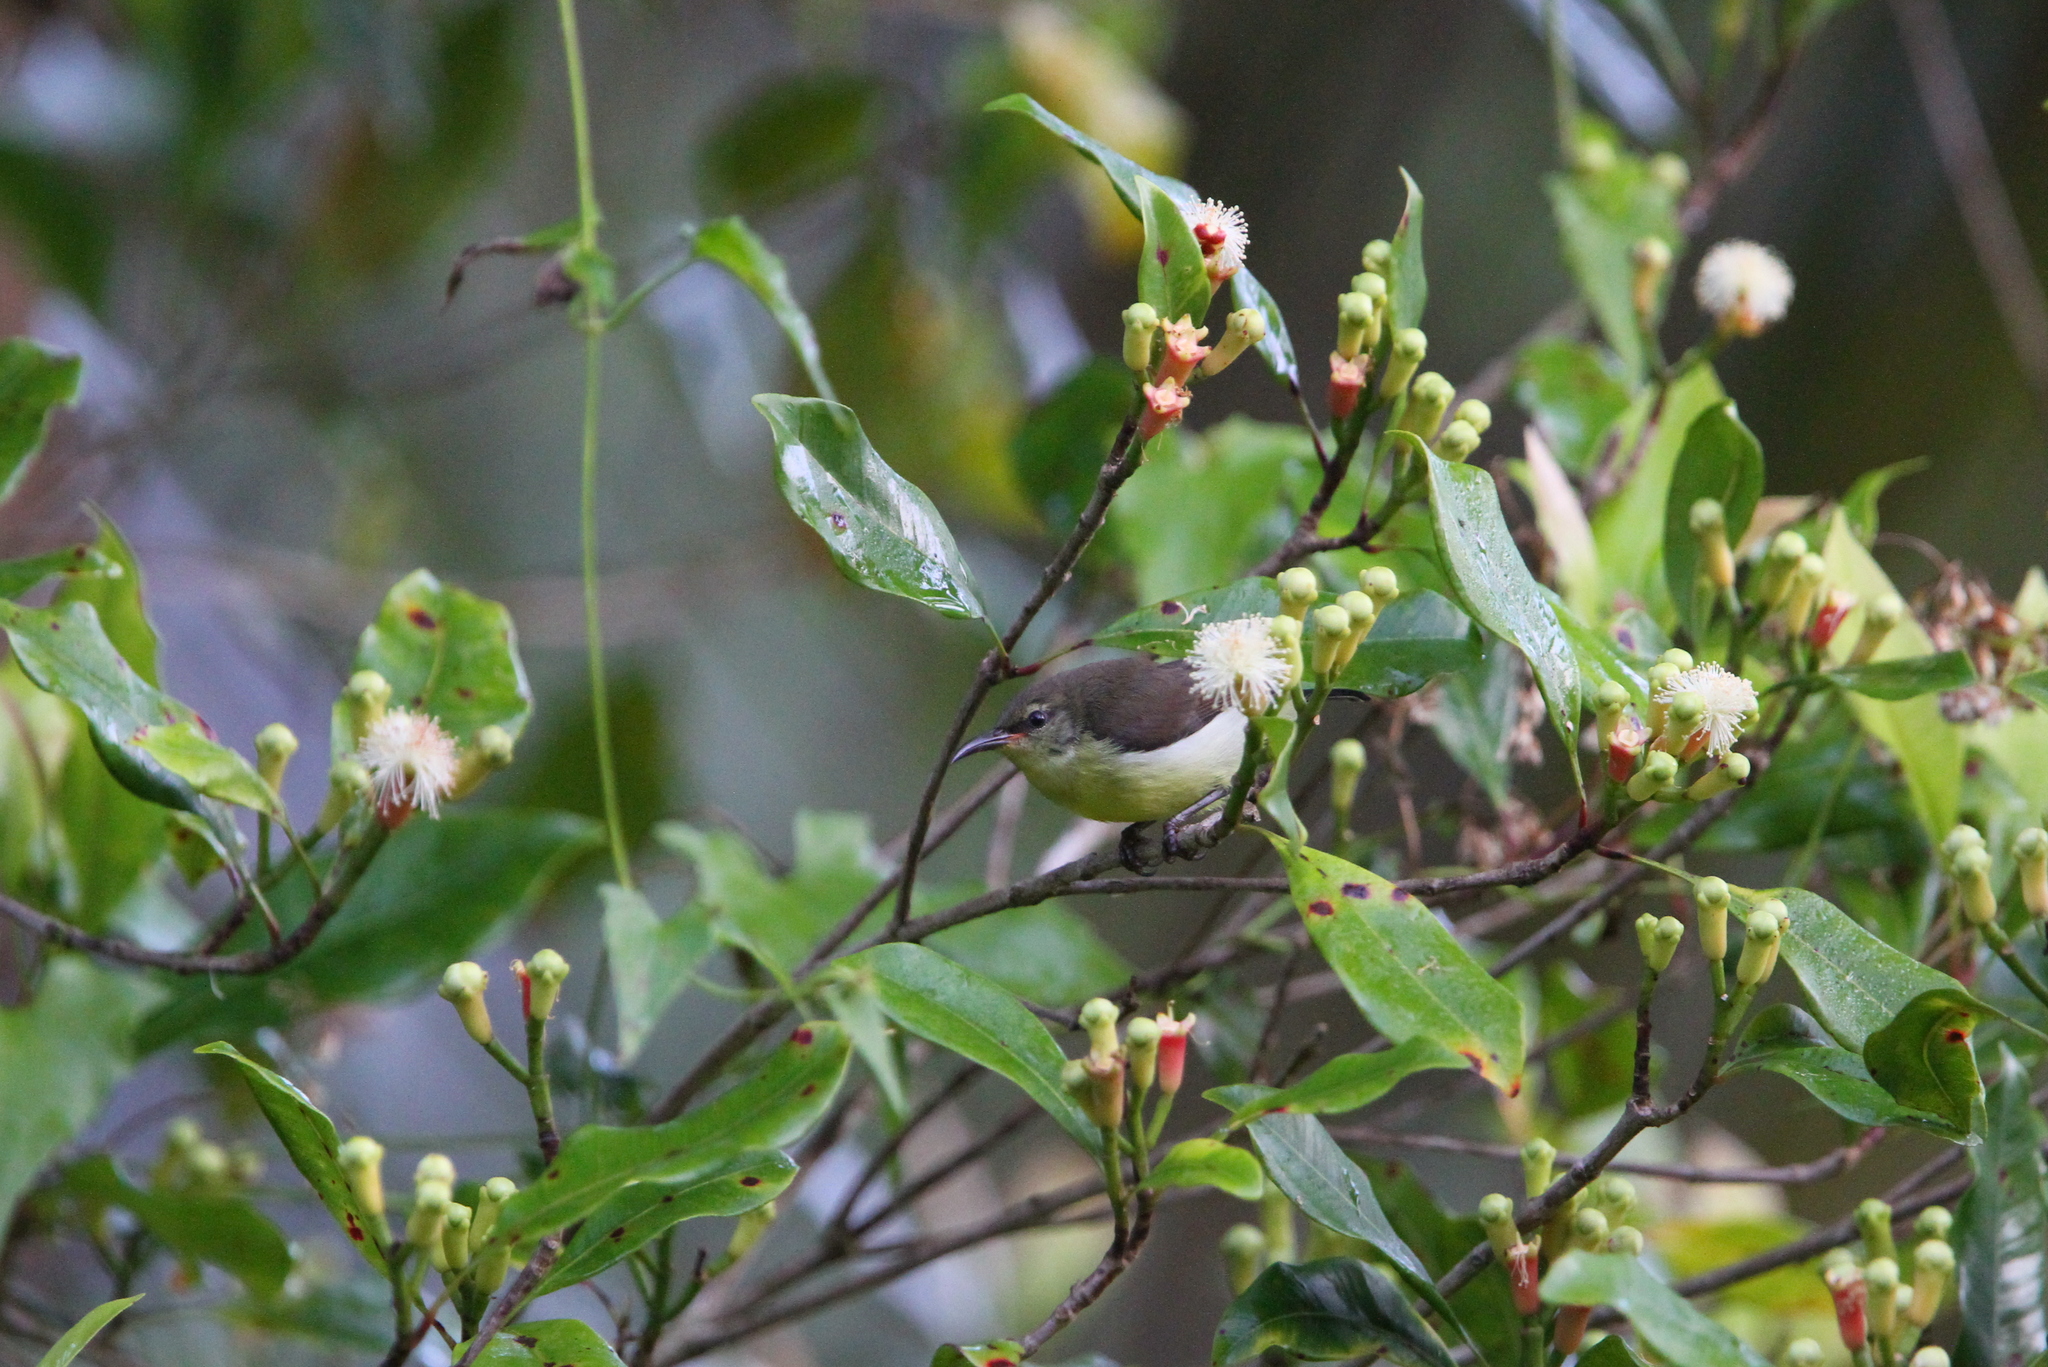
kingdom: Animalia
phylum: Chordata
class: Aves
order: Passeriformes
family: Nectariniidae
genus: Leptocoma
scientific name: Leptocoma zeylonica
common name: Purple-rumped sunbird
